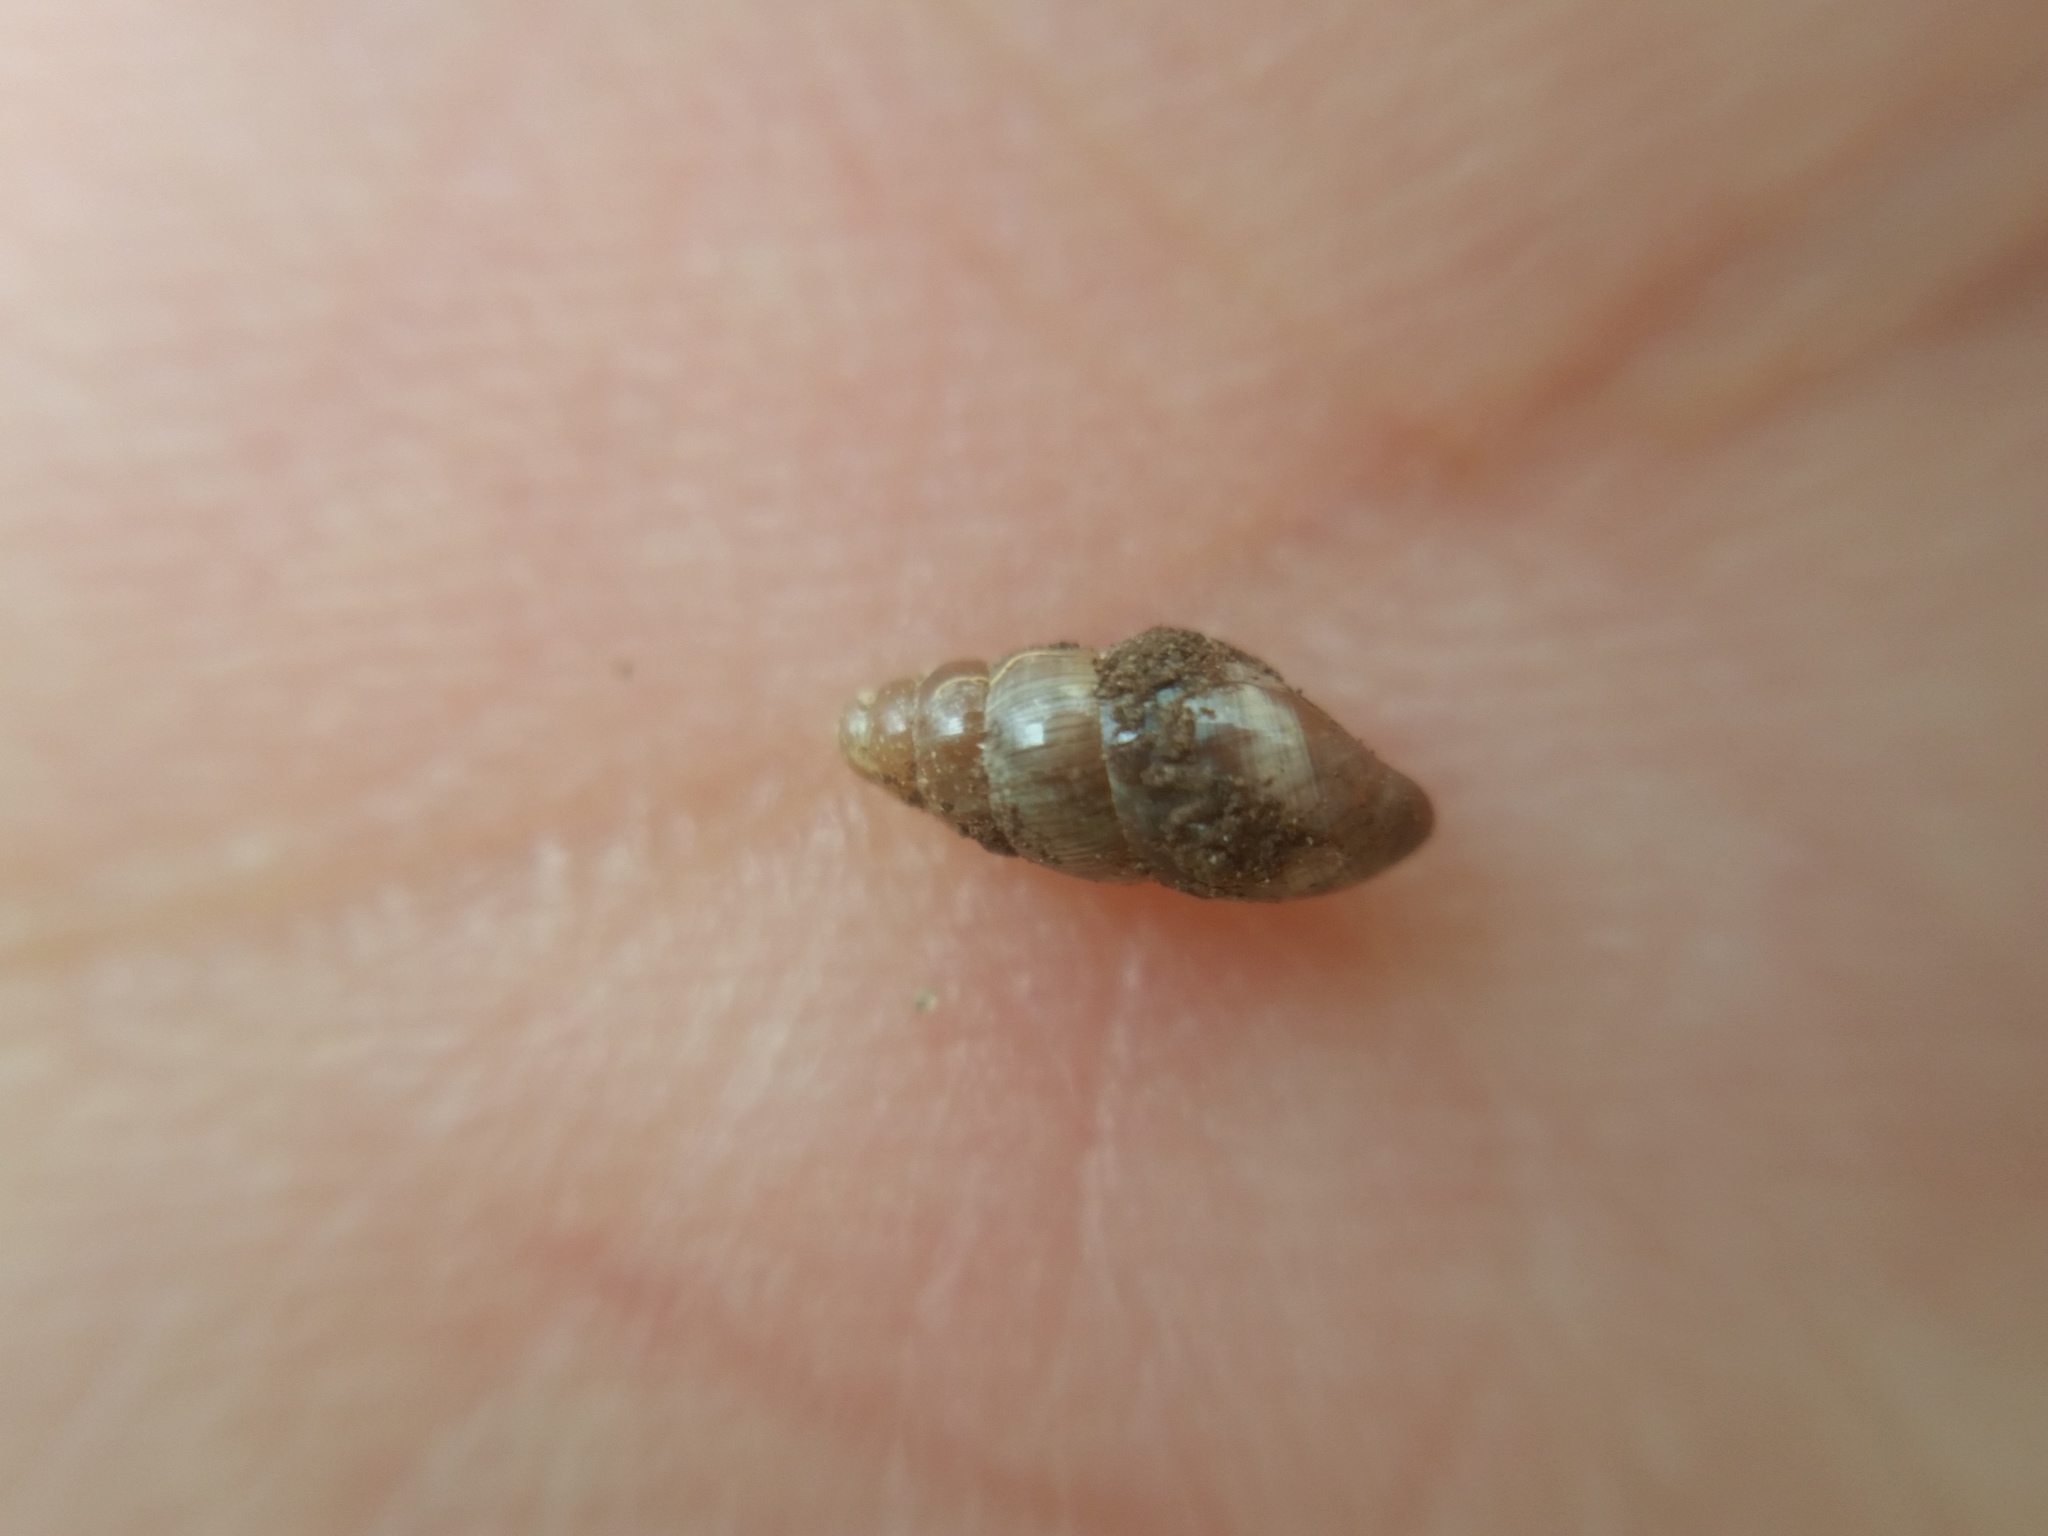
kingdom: Animalia
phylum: Mollusca
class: Gastropoda
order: Stylommatophora
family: Cochlicopidae
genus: Cochlicopa
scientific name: Cochlicopa lubrica
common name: Glossy pillar snail
